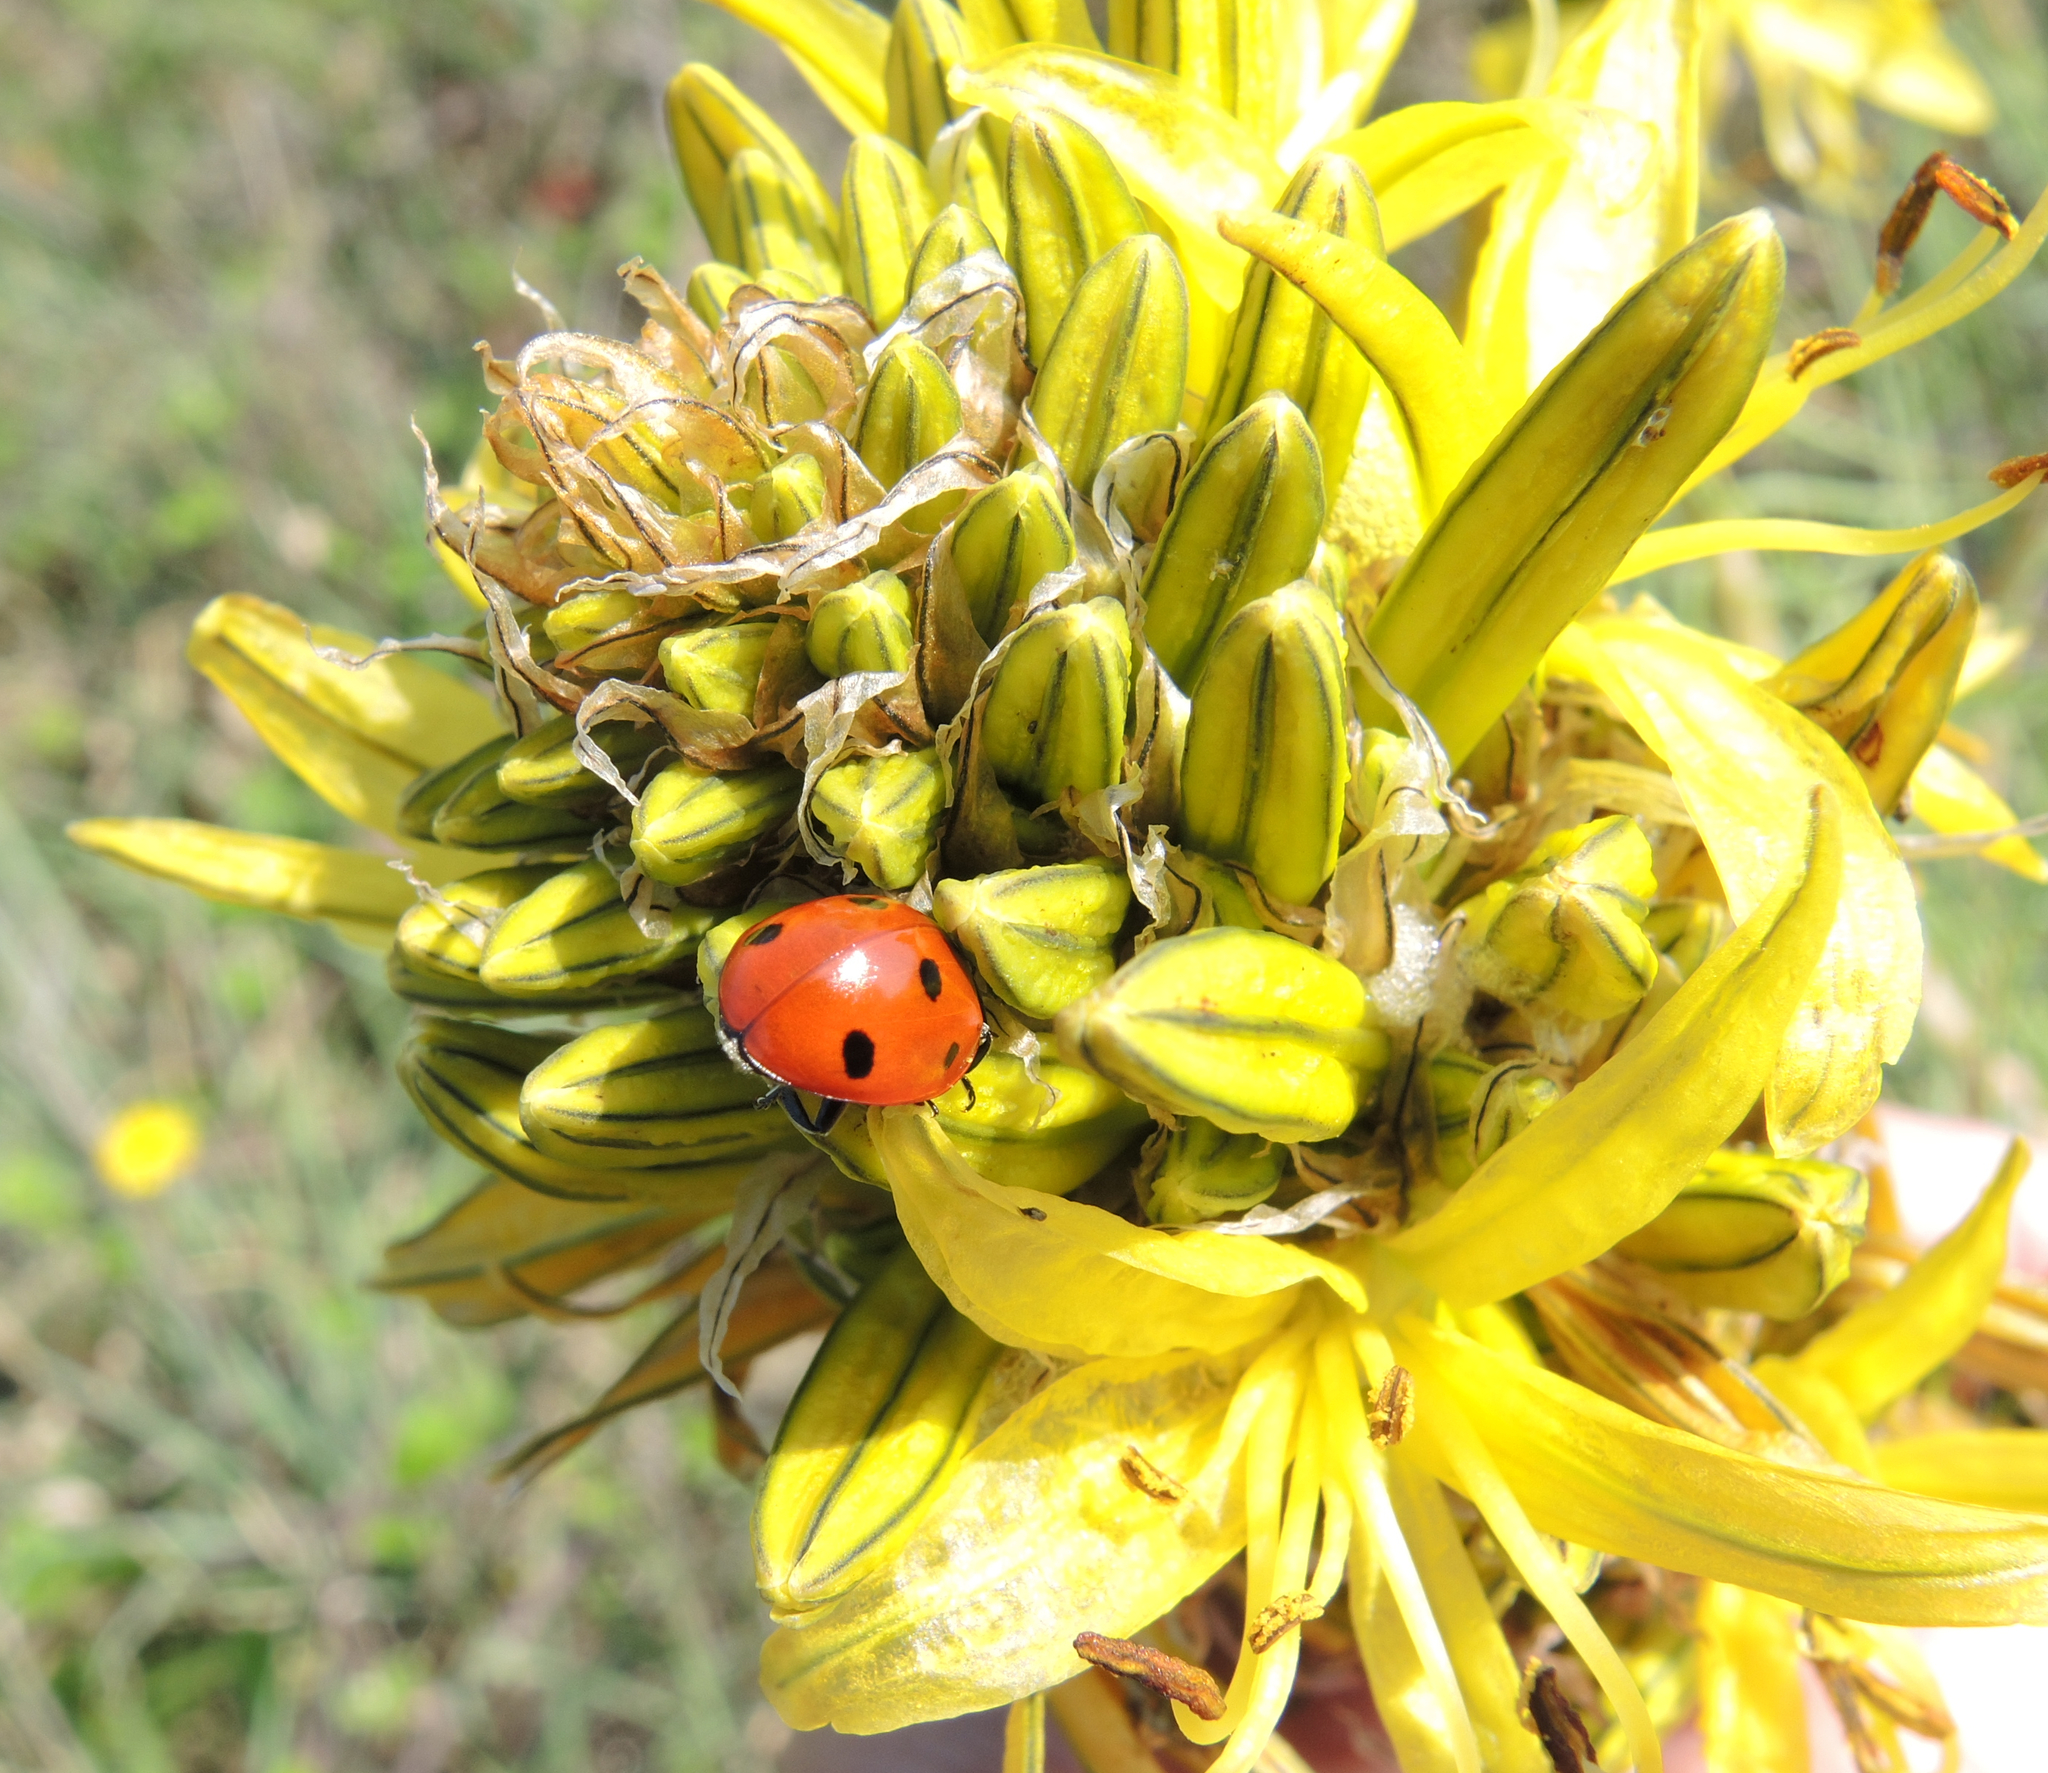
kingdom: Animalia
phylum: Arthropoda
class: Insecta
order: Coleoptera
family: Coccinellidae
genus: Coccinella
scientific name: Coccinella septempunctata
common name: Sevenspotted lady beetle
